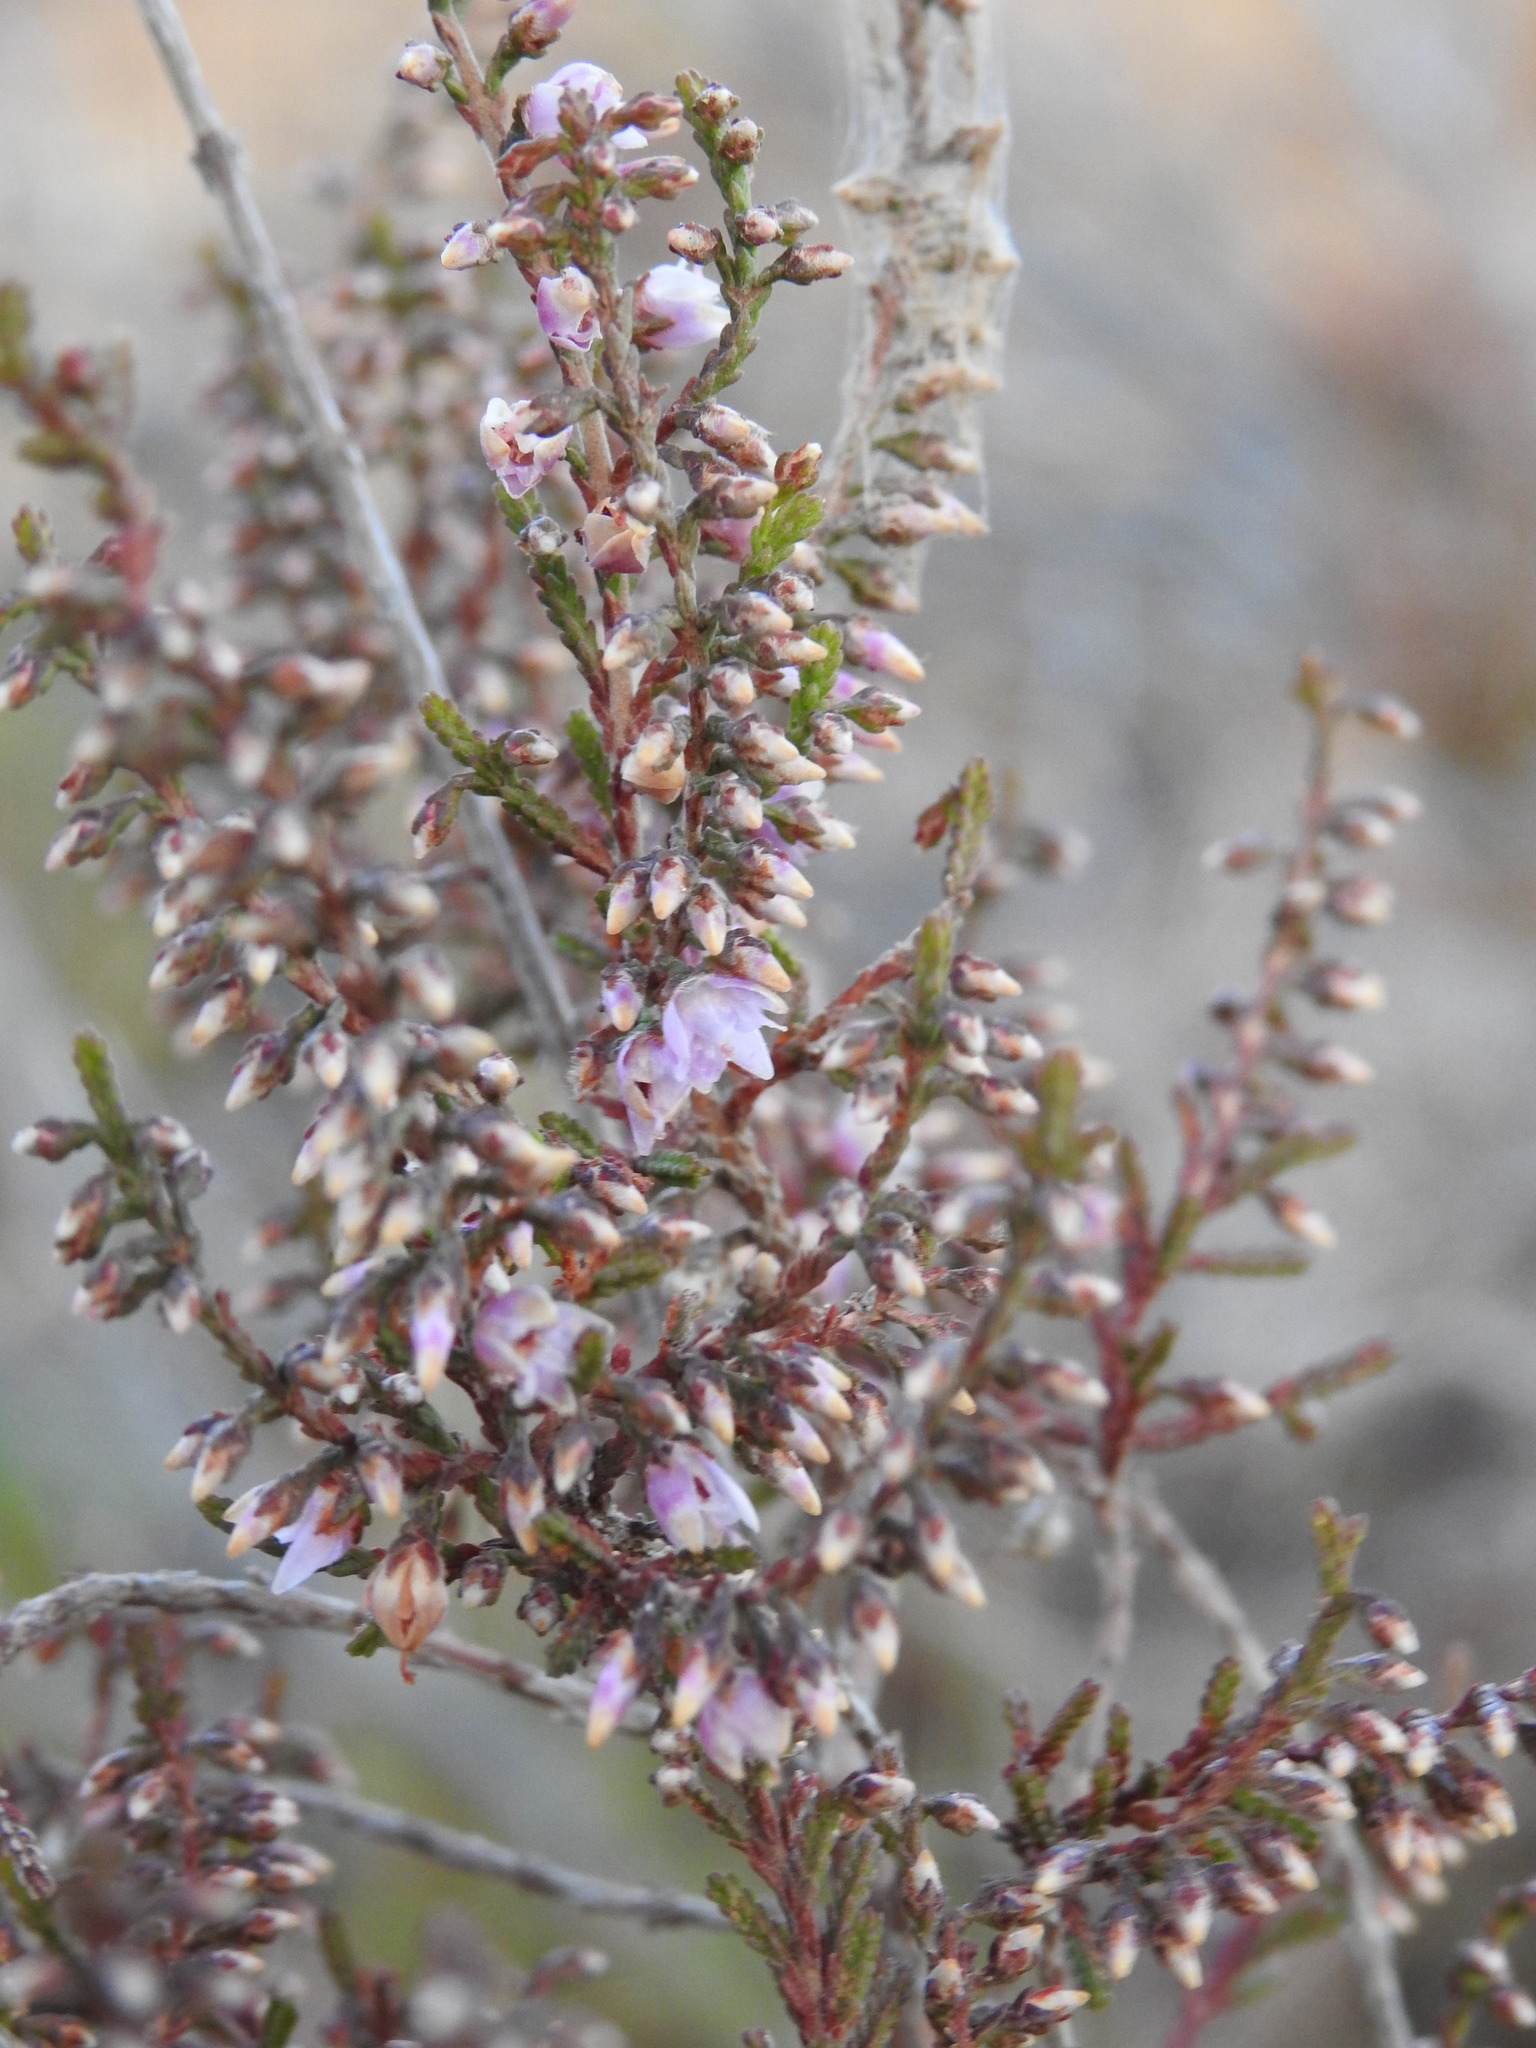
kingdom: Plantae
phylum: Tracheophyta
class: Magnoliopsida
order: Ericales
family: Ericaceae
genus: Calluna
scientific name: Calluna vulgaris
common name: Heather
